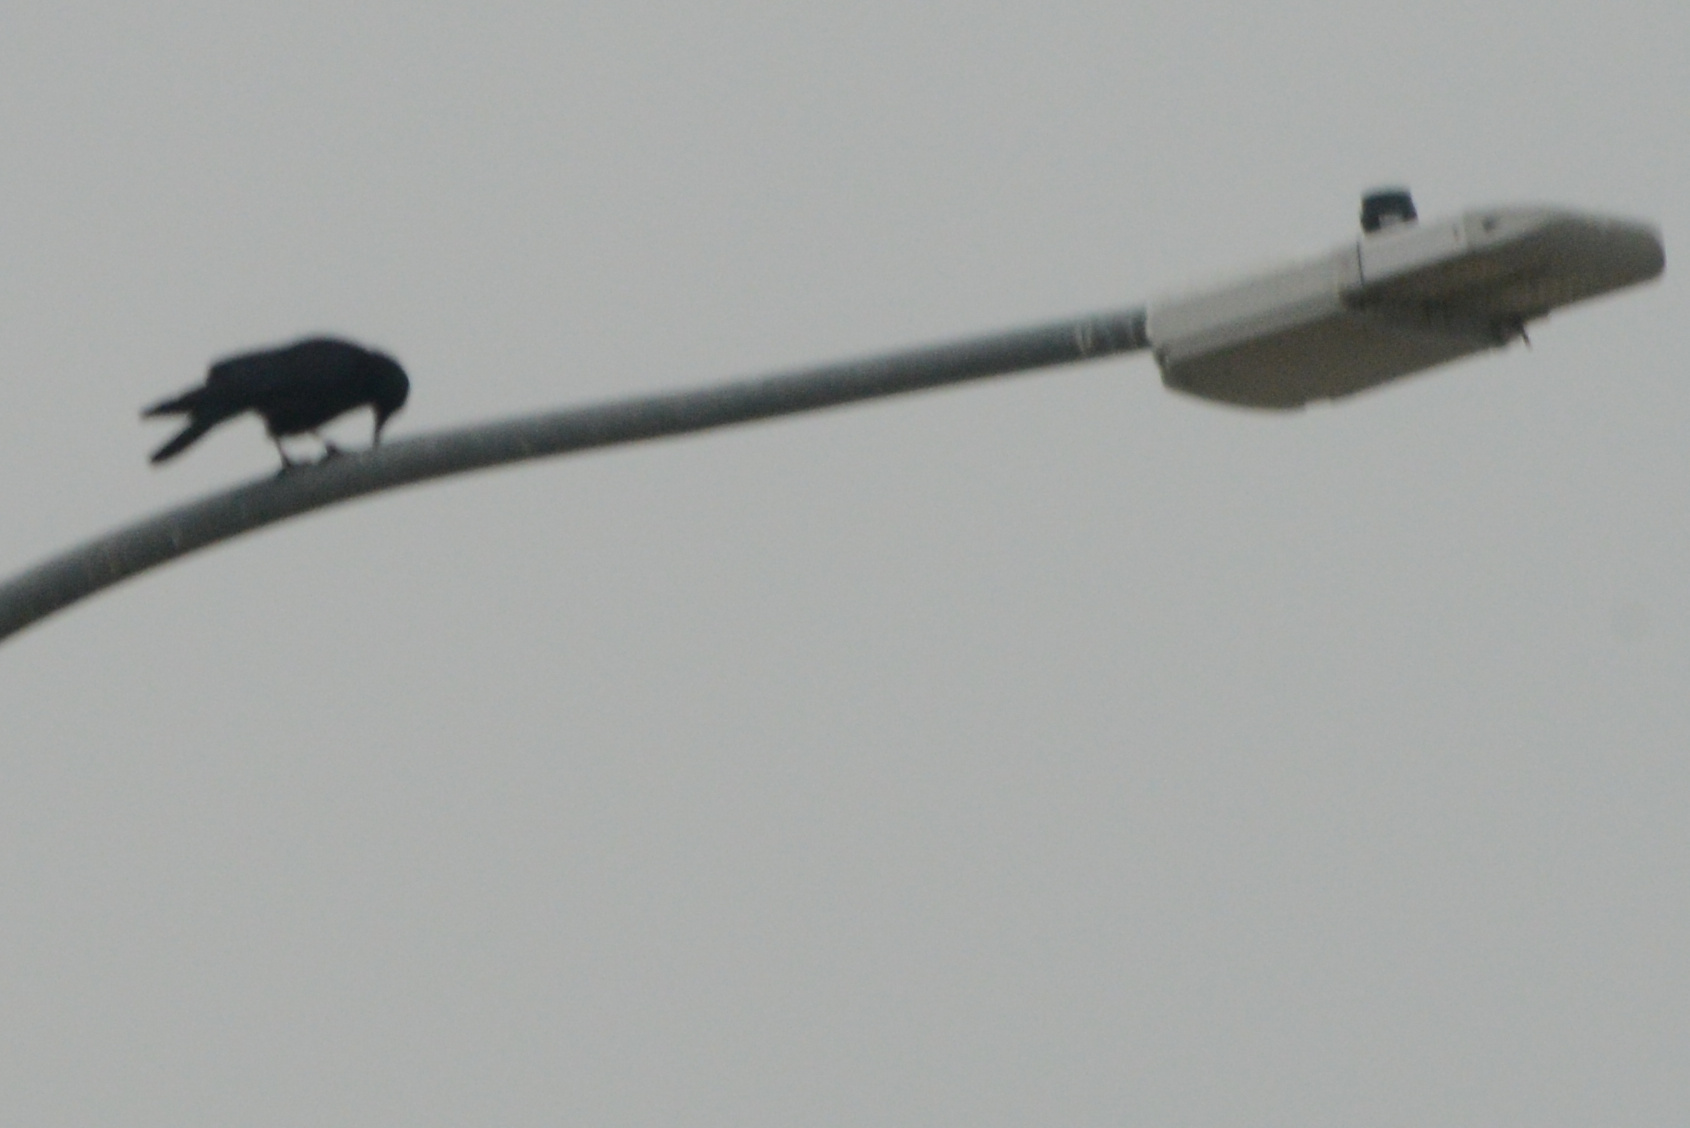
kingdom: Animalia
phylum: Chordata
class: Aves
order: Passeriformes
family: Corvidae
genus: Corvus
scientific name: Corvus brachyrhynchos
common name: American crow
